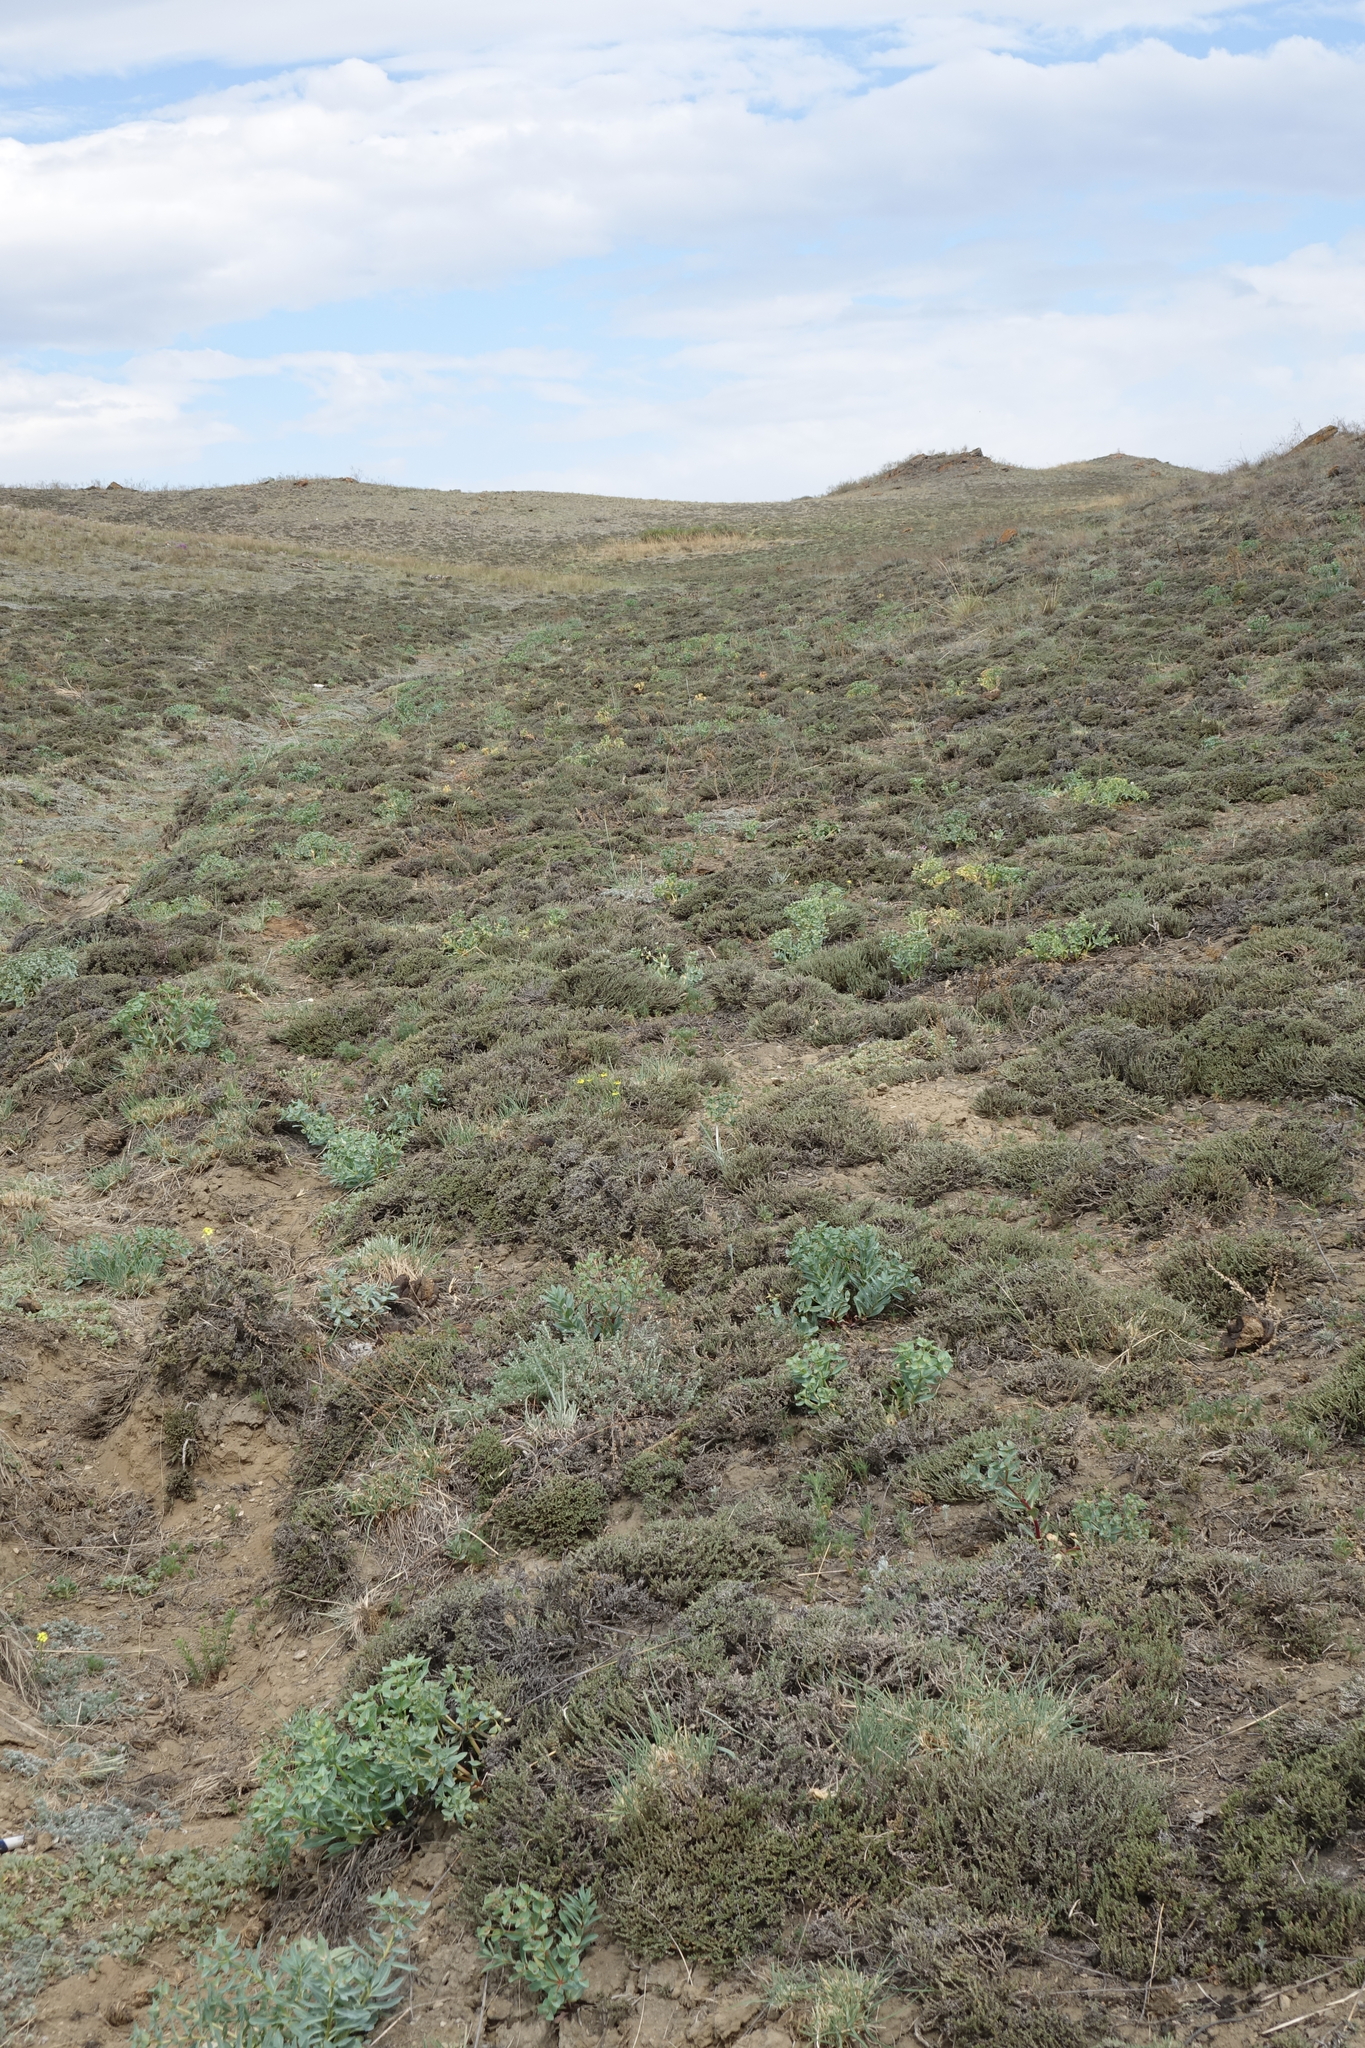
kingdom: Plantae
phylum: Tracheophyta
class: Magnoliopsida
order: Malpighiales
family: Euphorbiaceae
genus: Euphorbia
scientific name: Euphorbia mongolica
